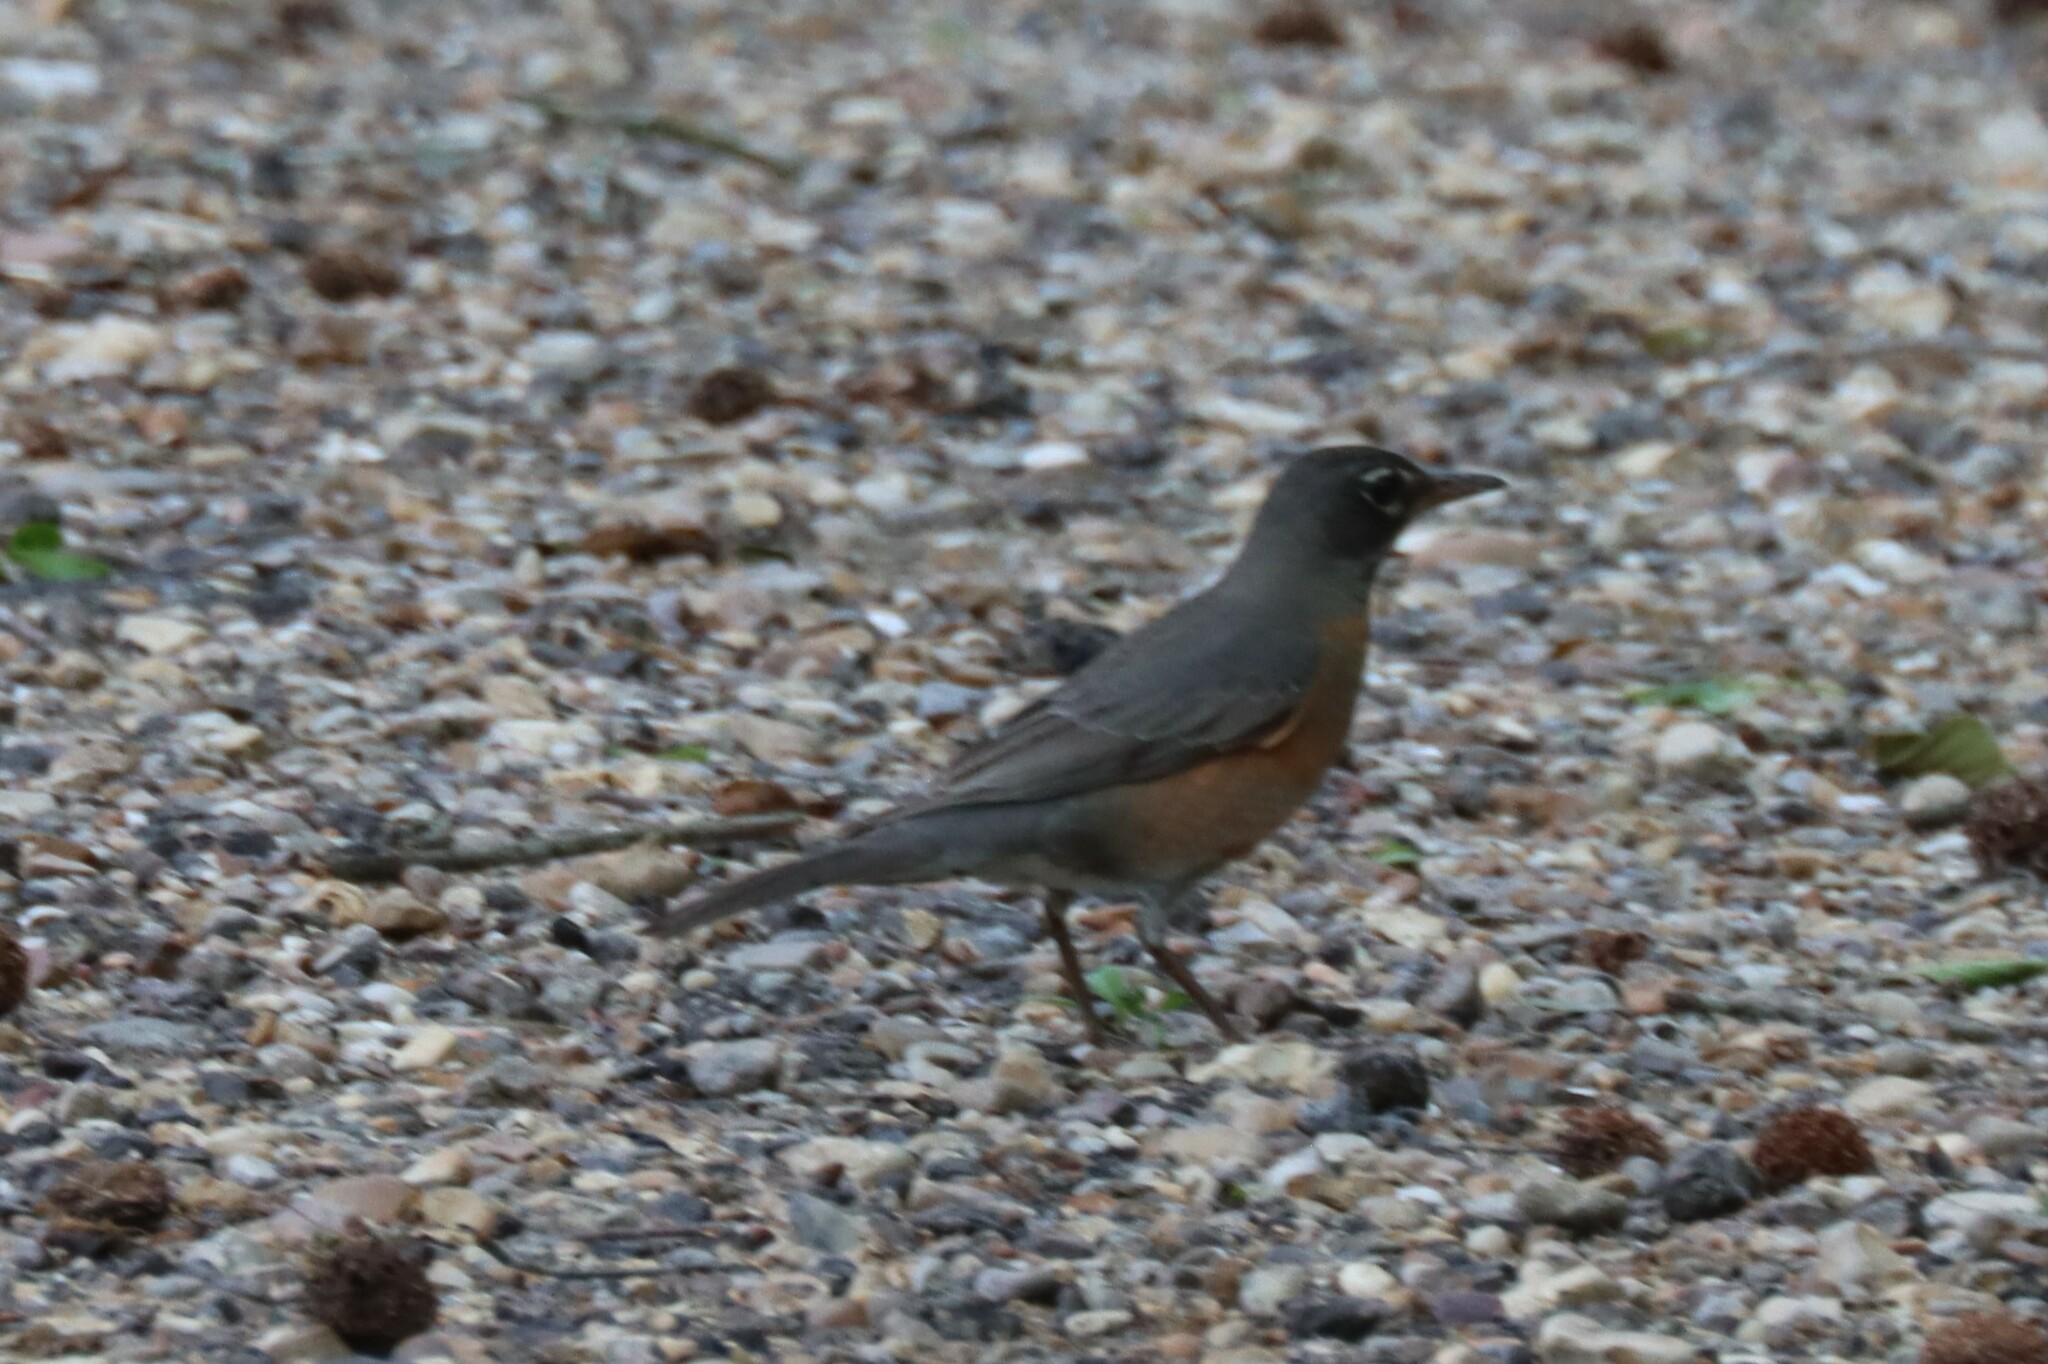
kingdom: Animalia
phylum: Chordata
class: Aves
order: Passeriformes
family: Turdidae
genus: Turdus
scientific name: Turdus migratorius
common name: American robin
